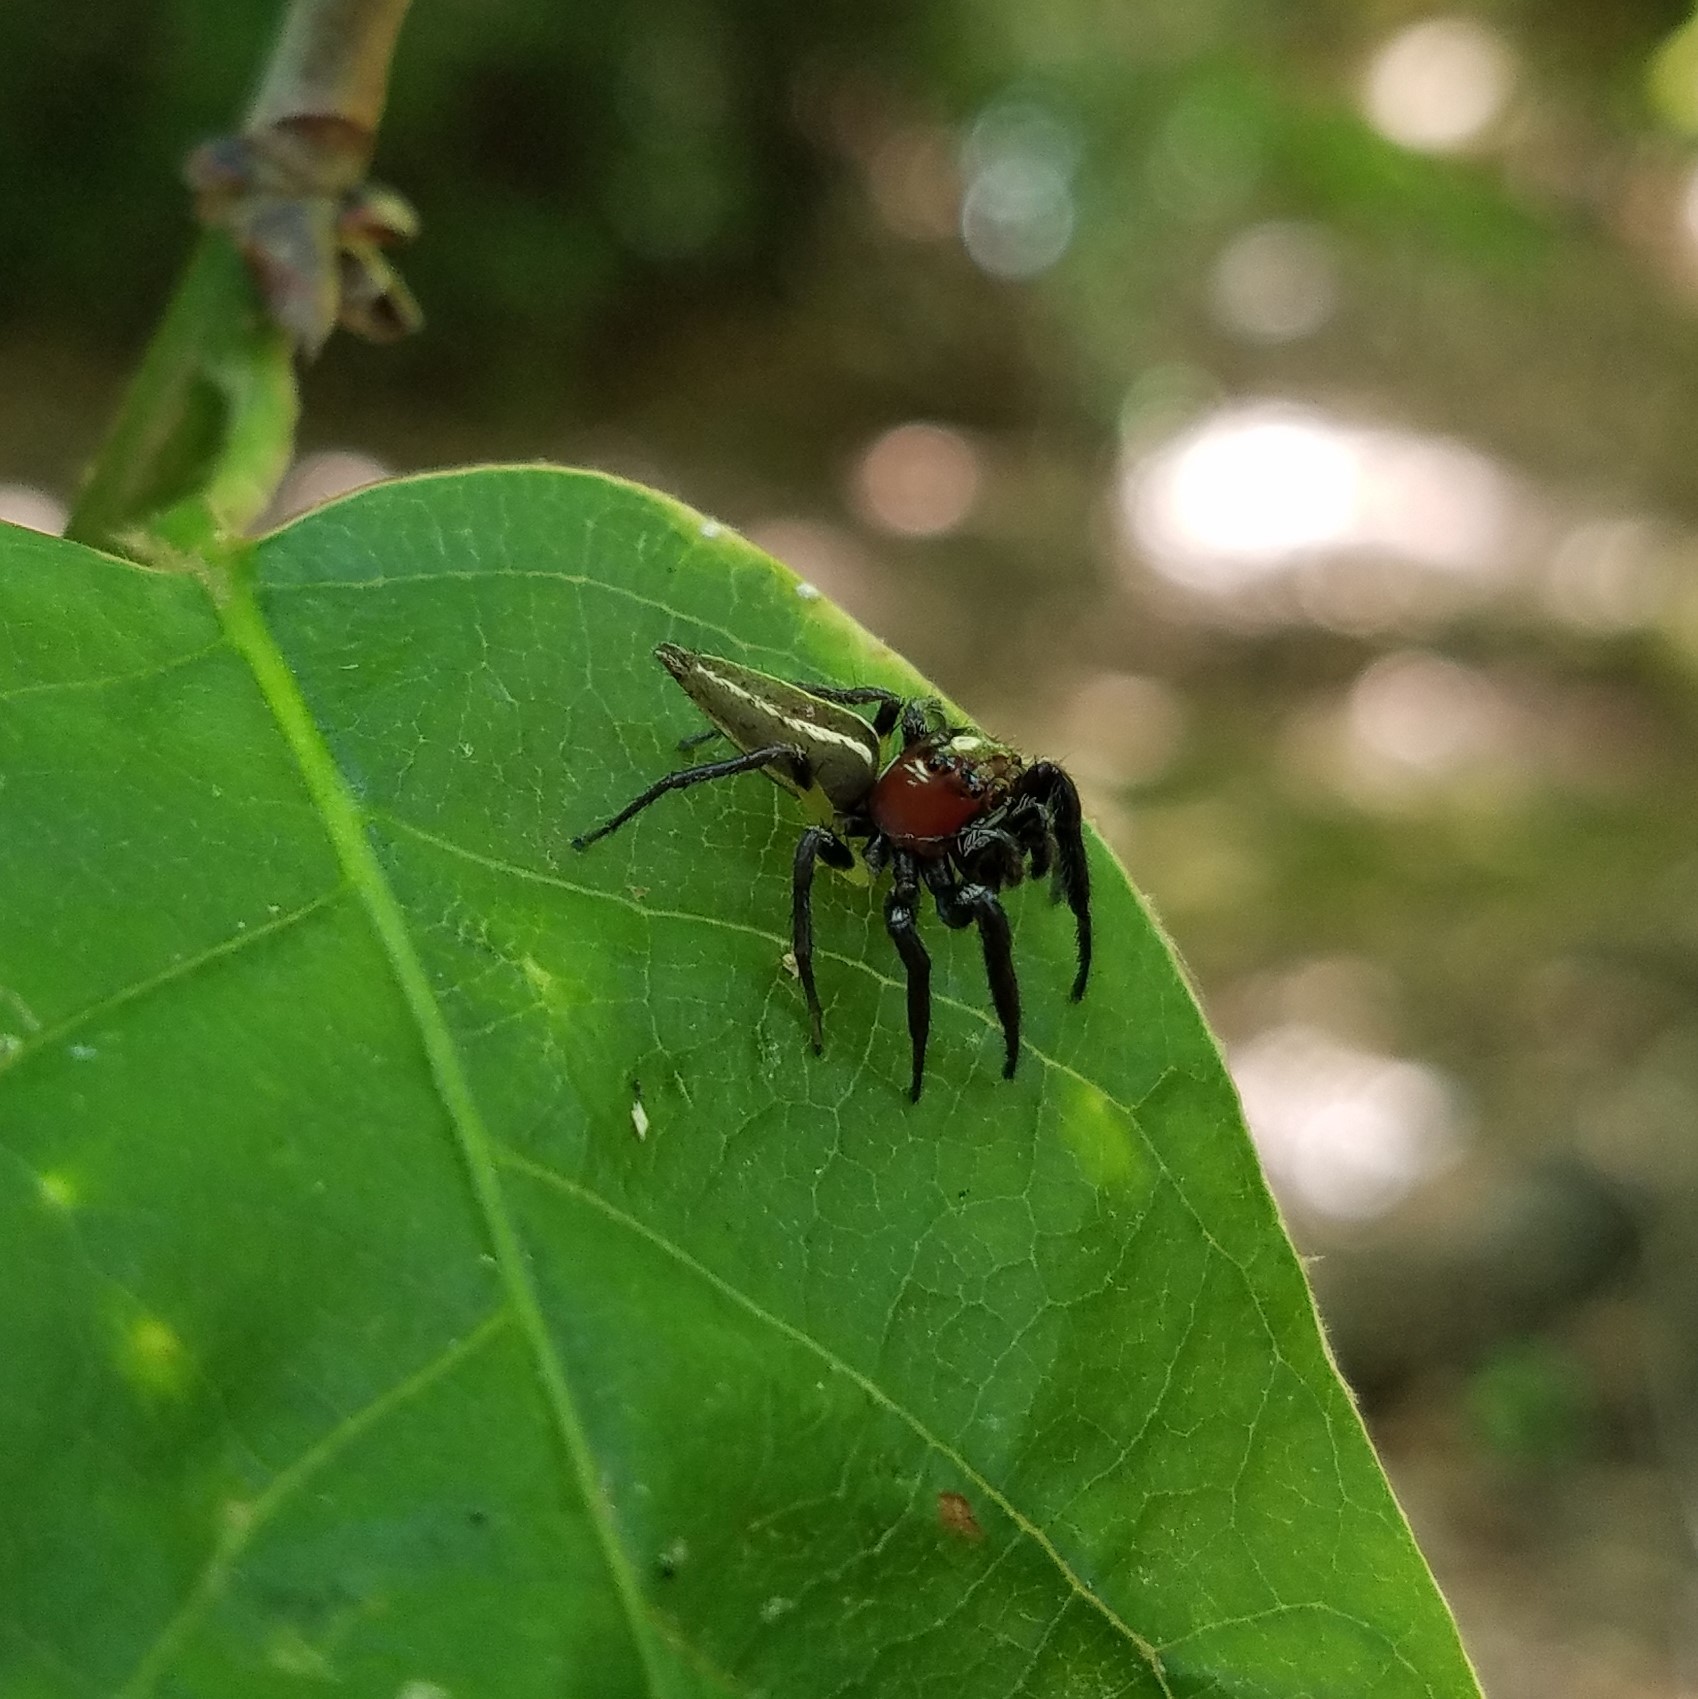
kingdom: Animalia
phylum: Arthropoda
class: Arachnida
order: Araneae
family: Salticidae
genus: Colonus
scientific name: Colonus sylvanus
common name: Jumping spiders
